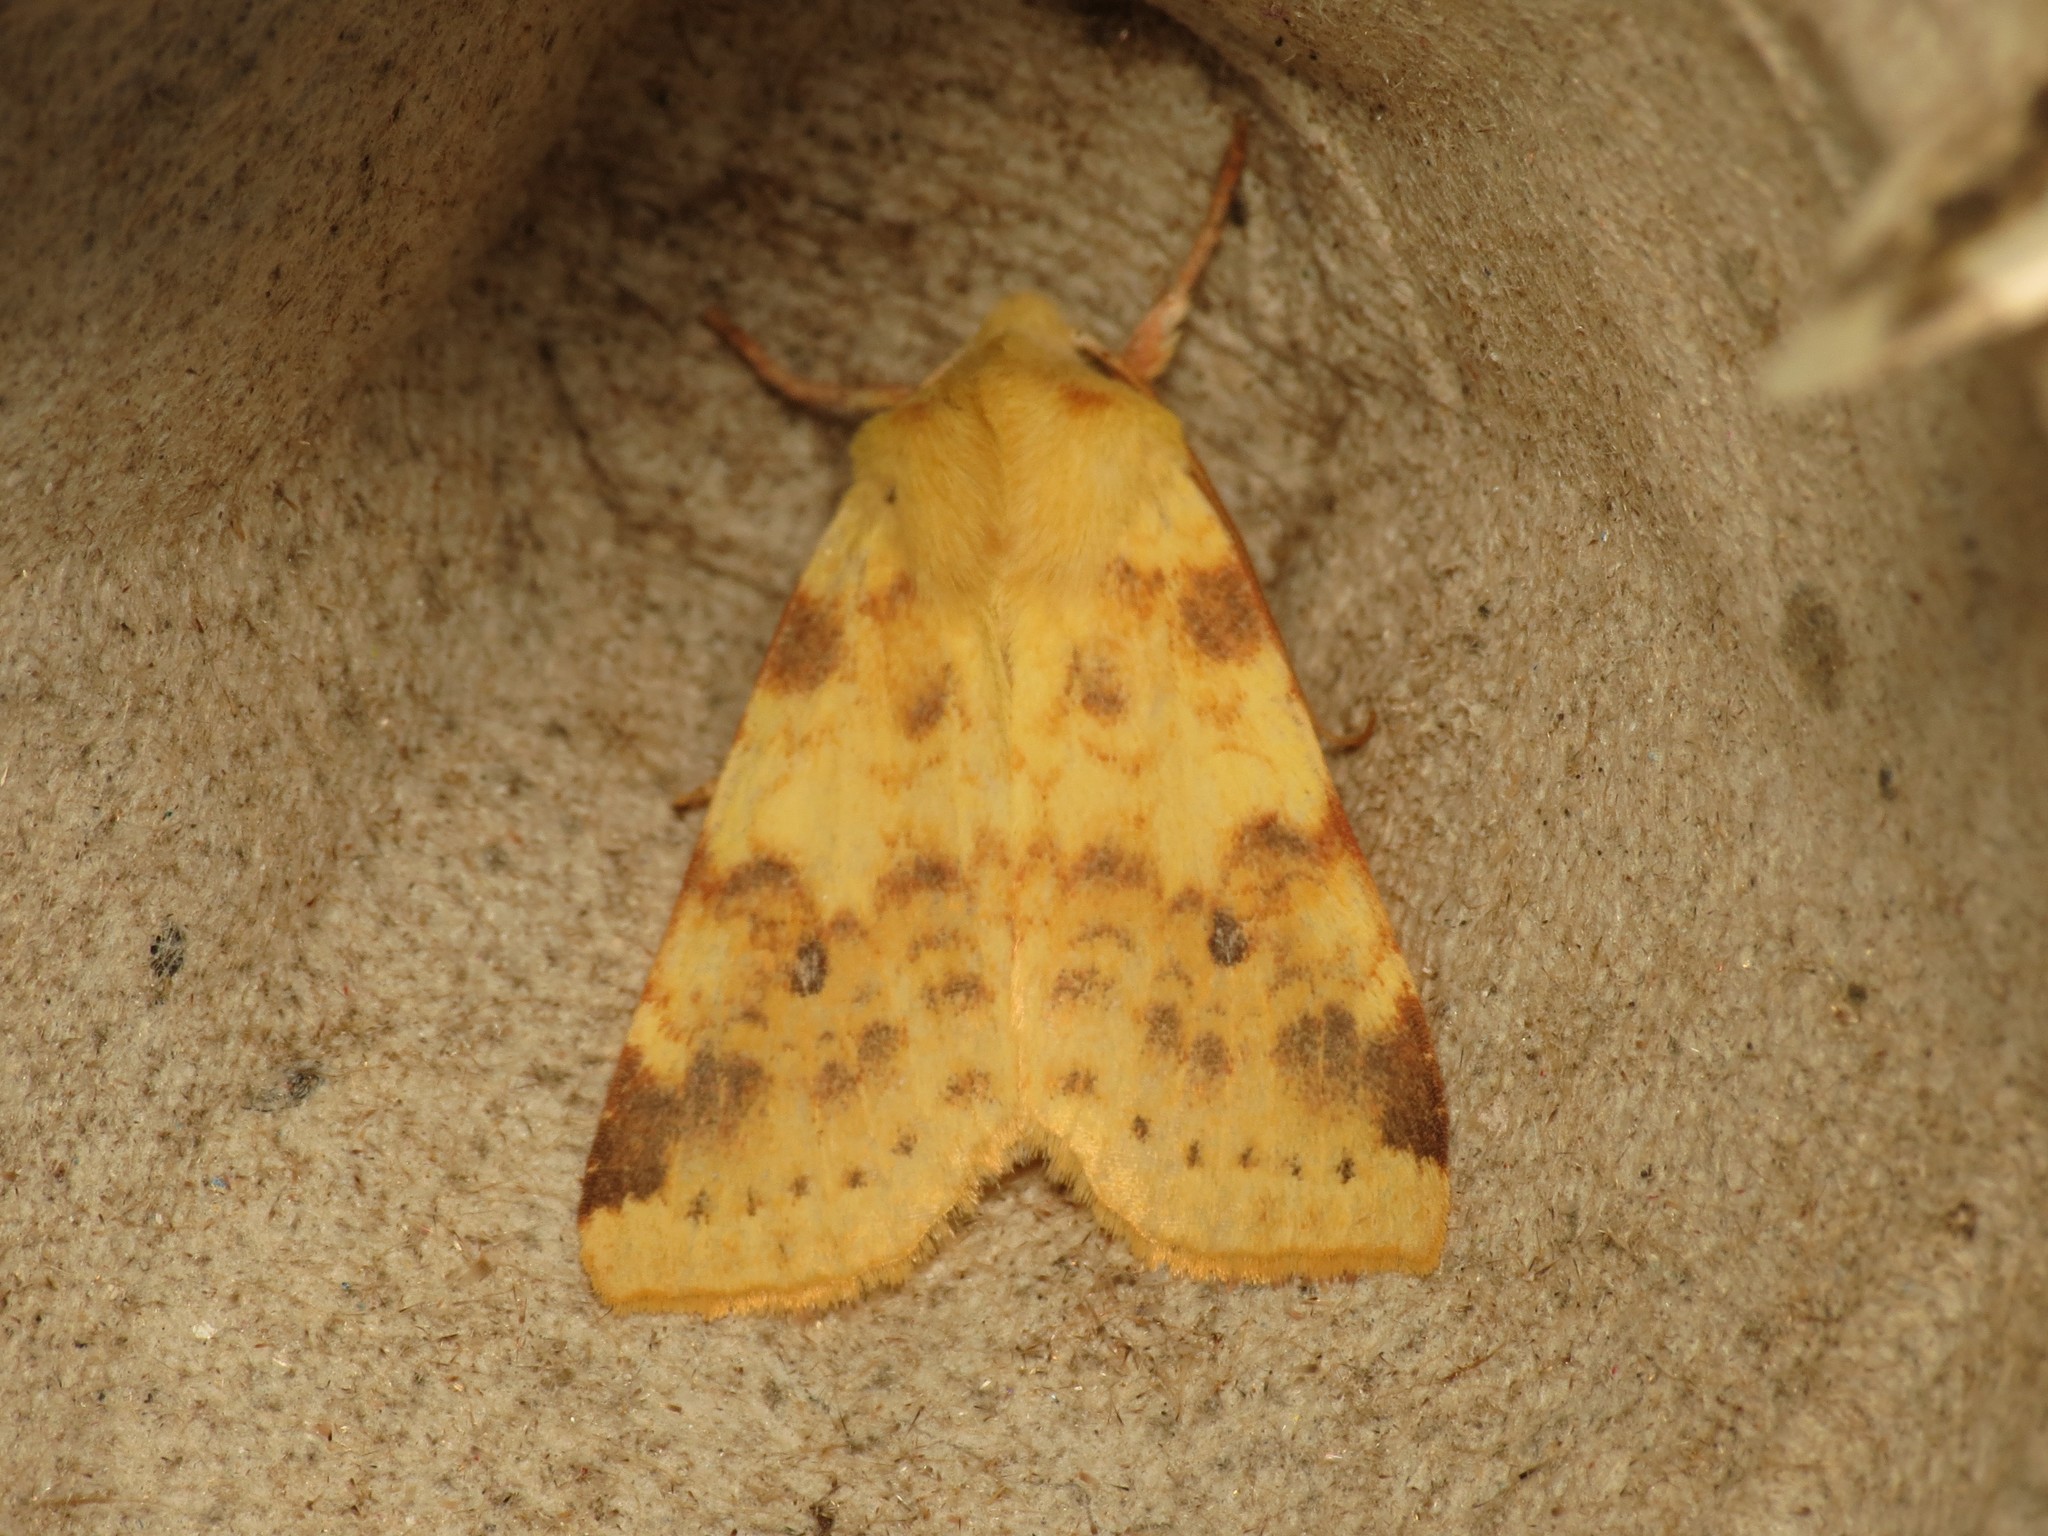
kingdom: Animalia
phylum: Arthropoda
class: Insecta
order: Lepidoptera
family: Noctuidae
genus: Xanthia
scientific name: Xanthia icteritia
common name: The sallow
